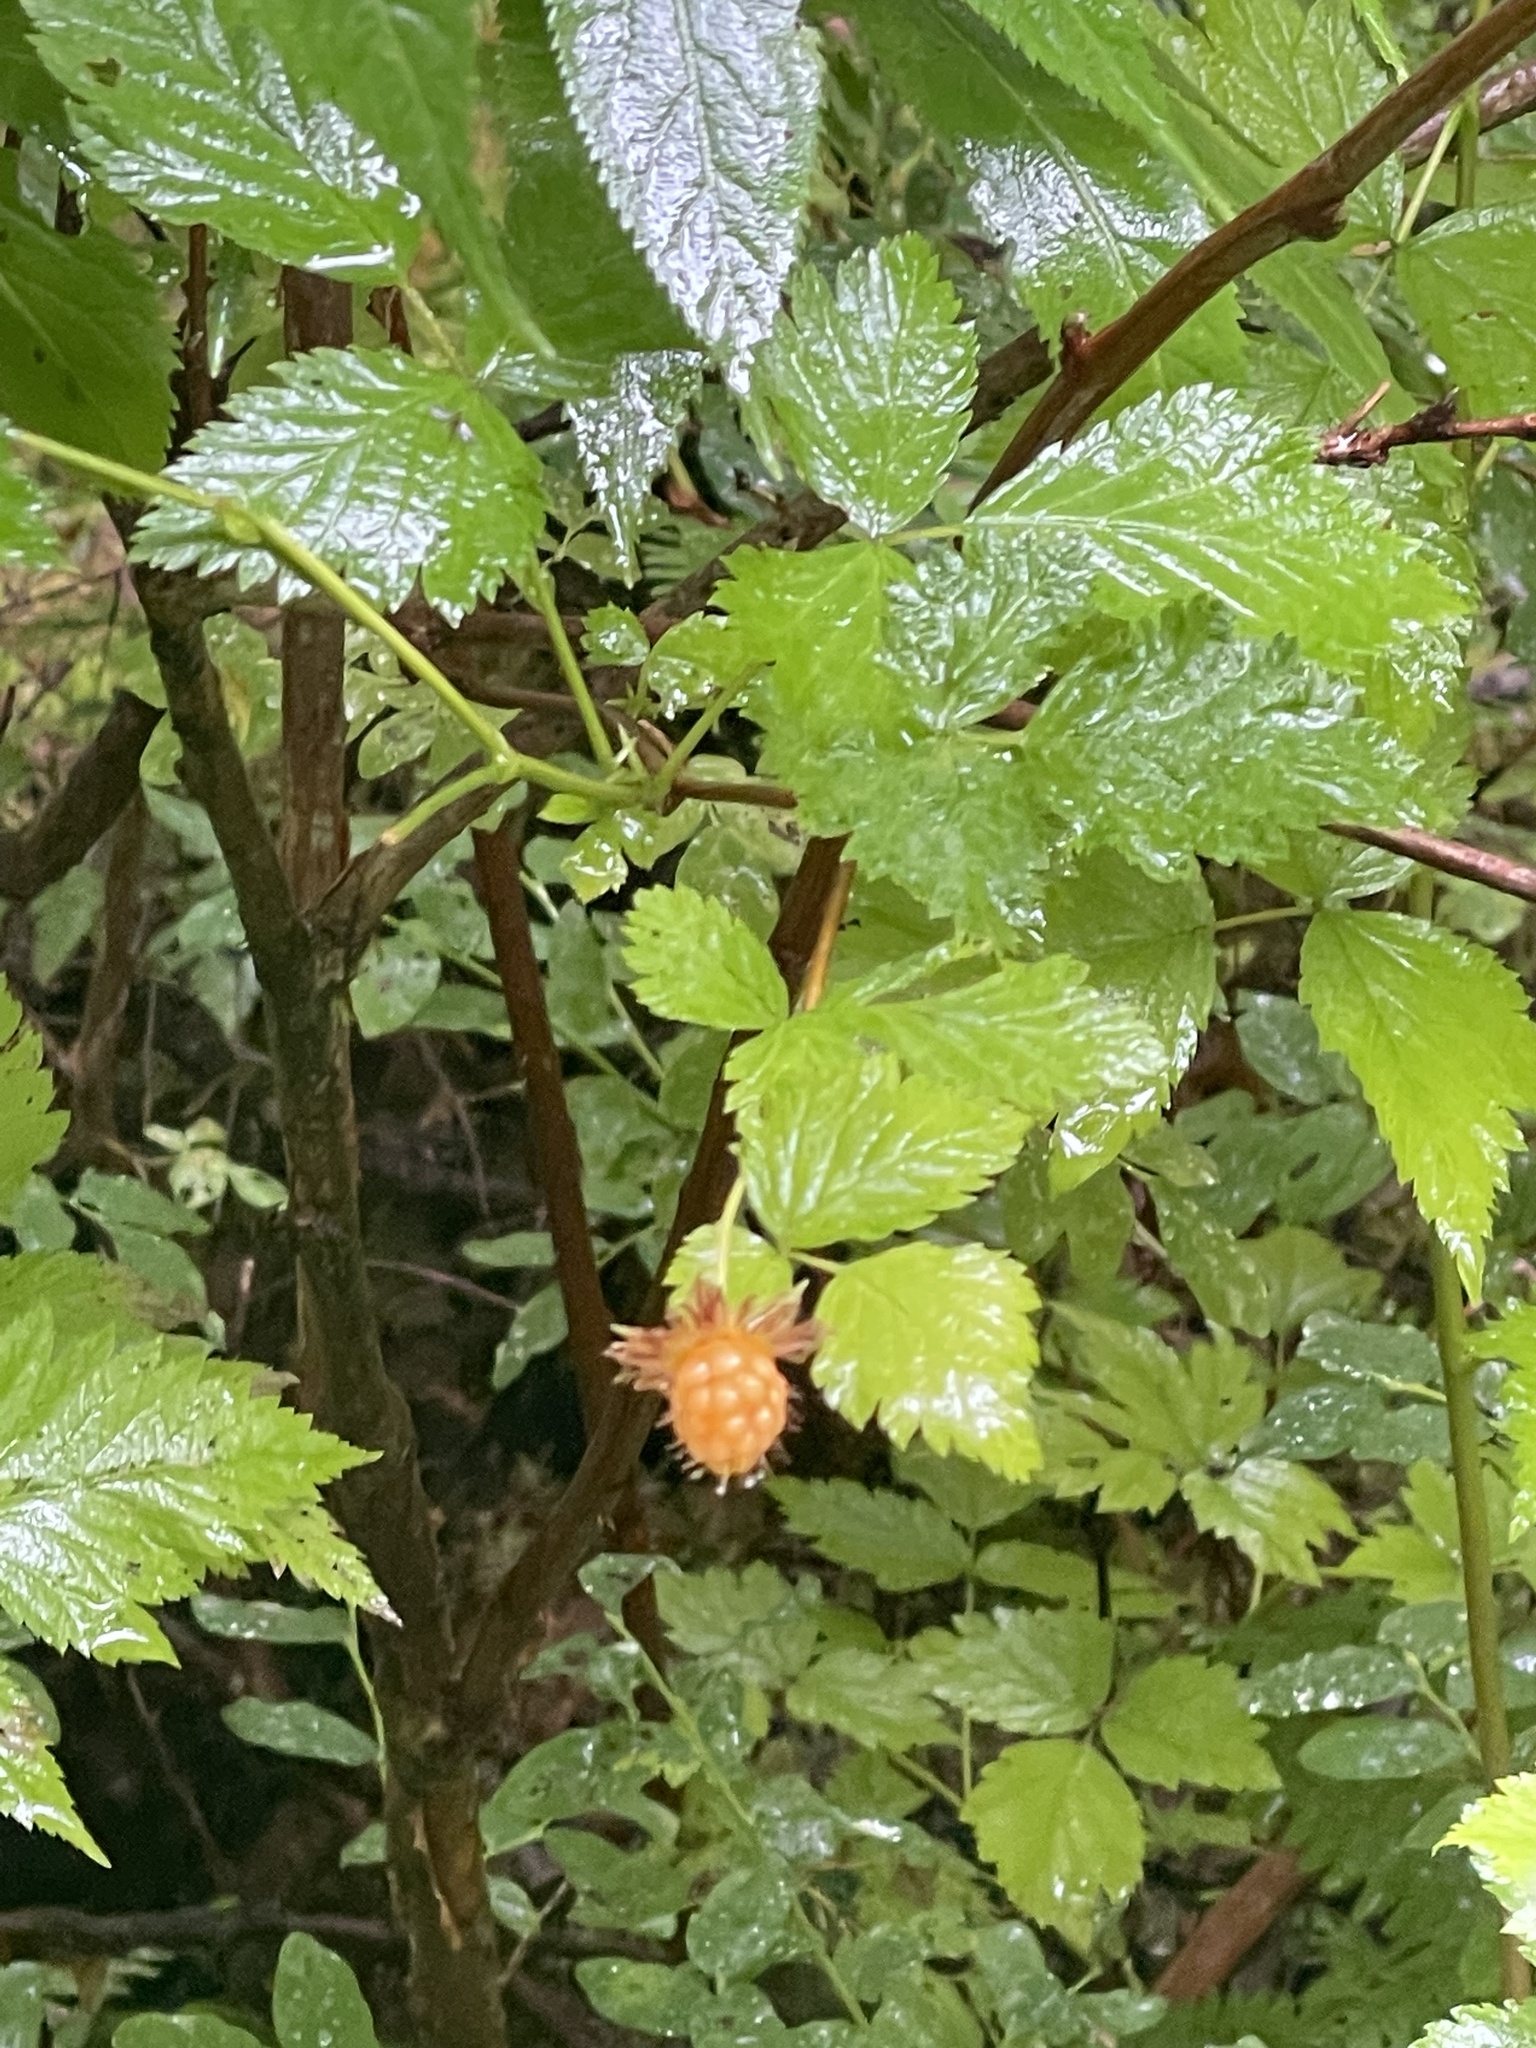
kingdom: Plantae
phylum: Tracheophyta
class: Magnoliopsida
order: Rosales
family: Rosaceae
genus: Rubus
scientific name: Rubus spectabilis
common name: Salmonberry
